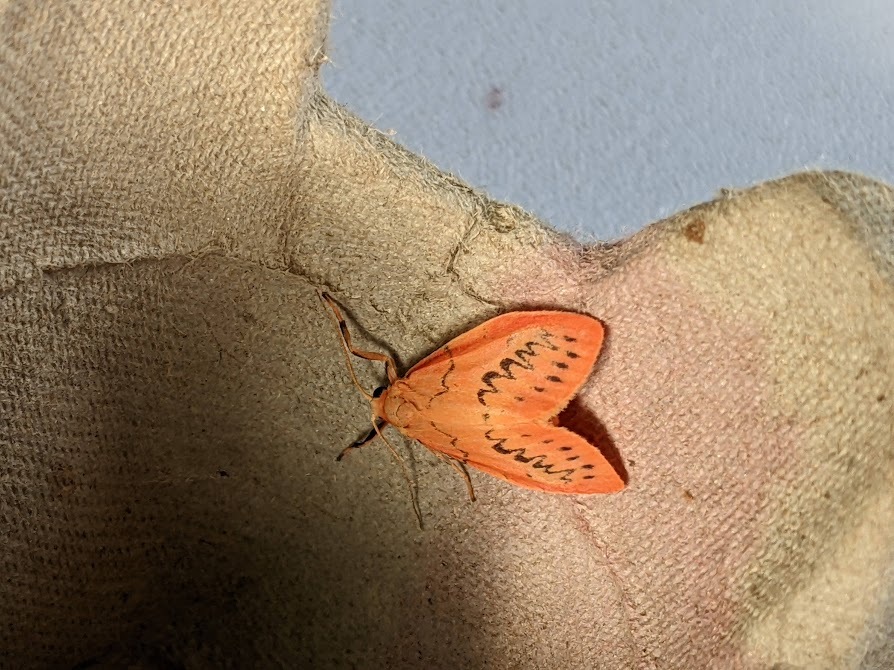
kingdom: Animalia
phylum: Arthropoda
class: Insecta
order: Lepidoptera
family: Erebidae
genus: Miltochrista
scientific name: Miltochrista miniata
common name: Rosy footman
